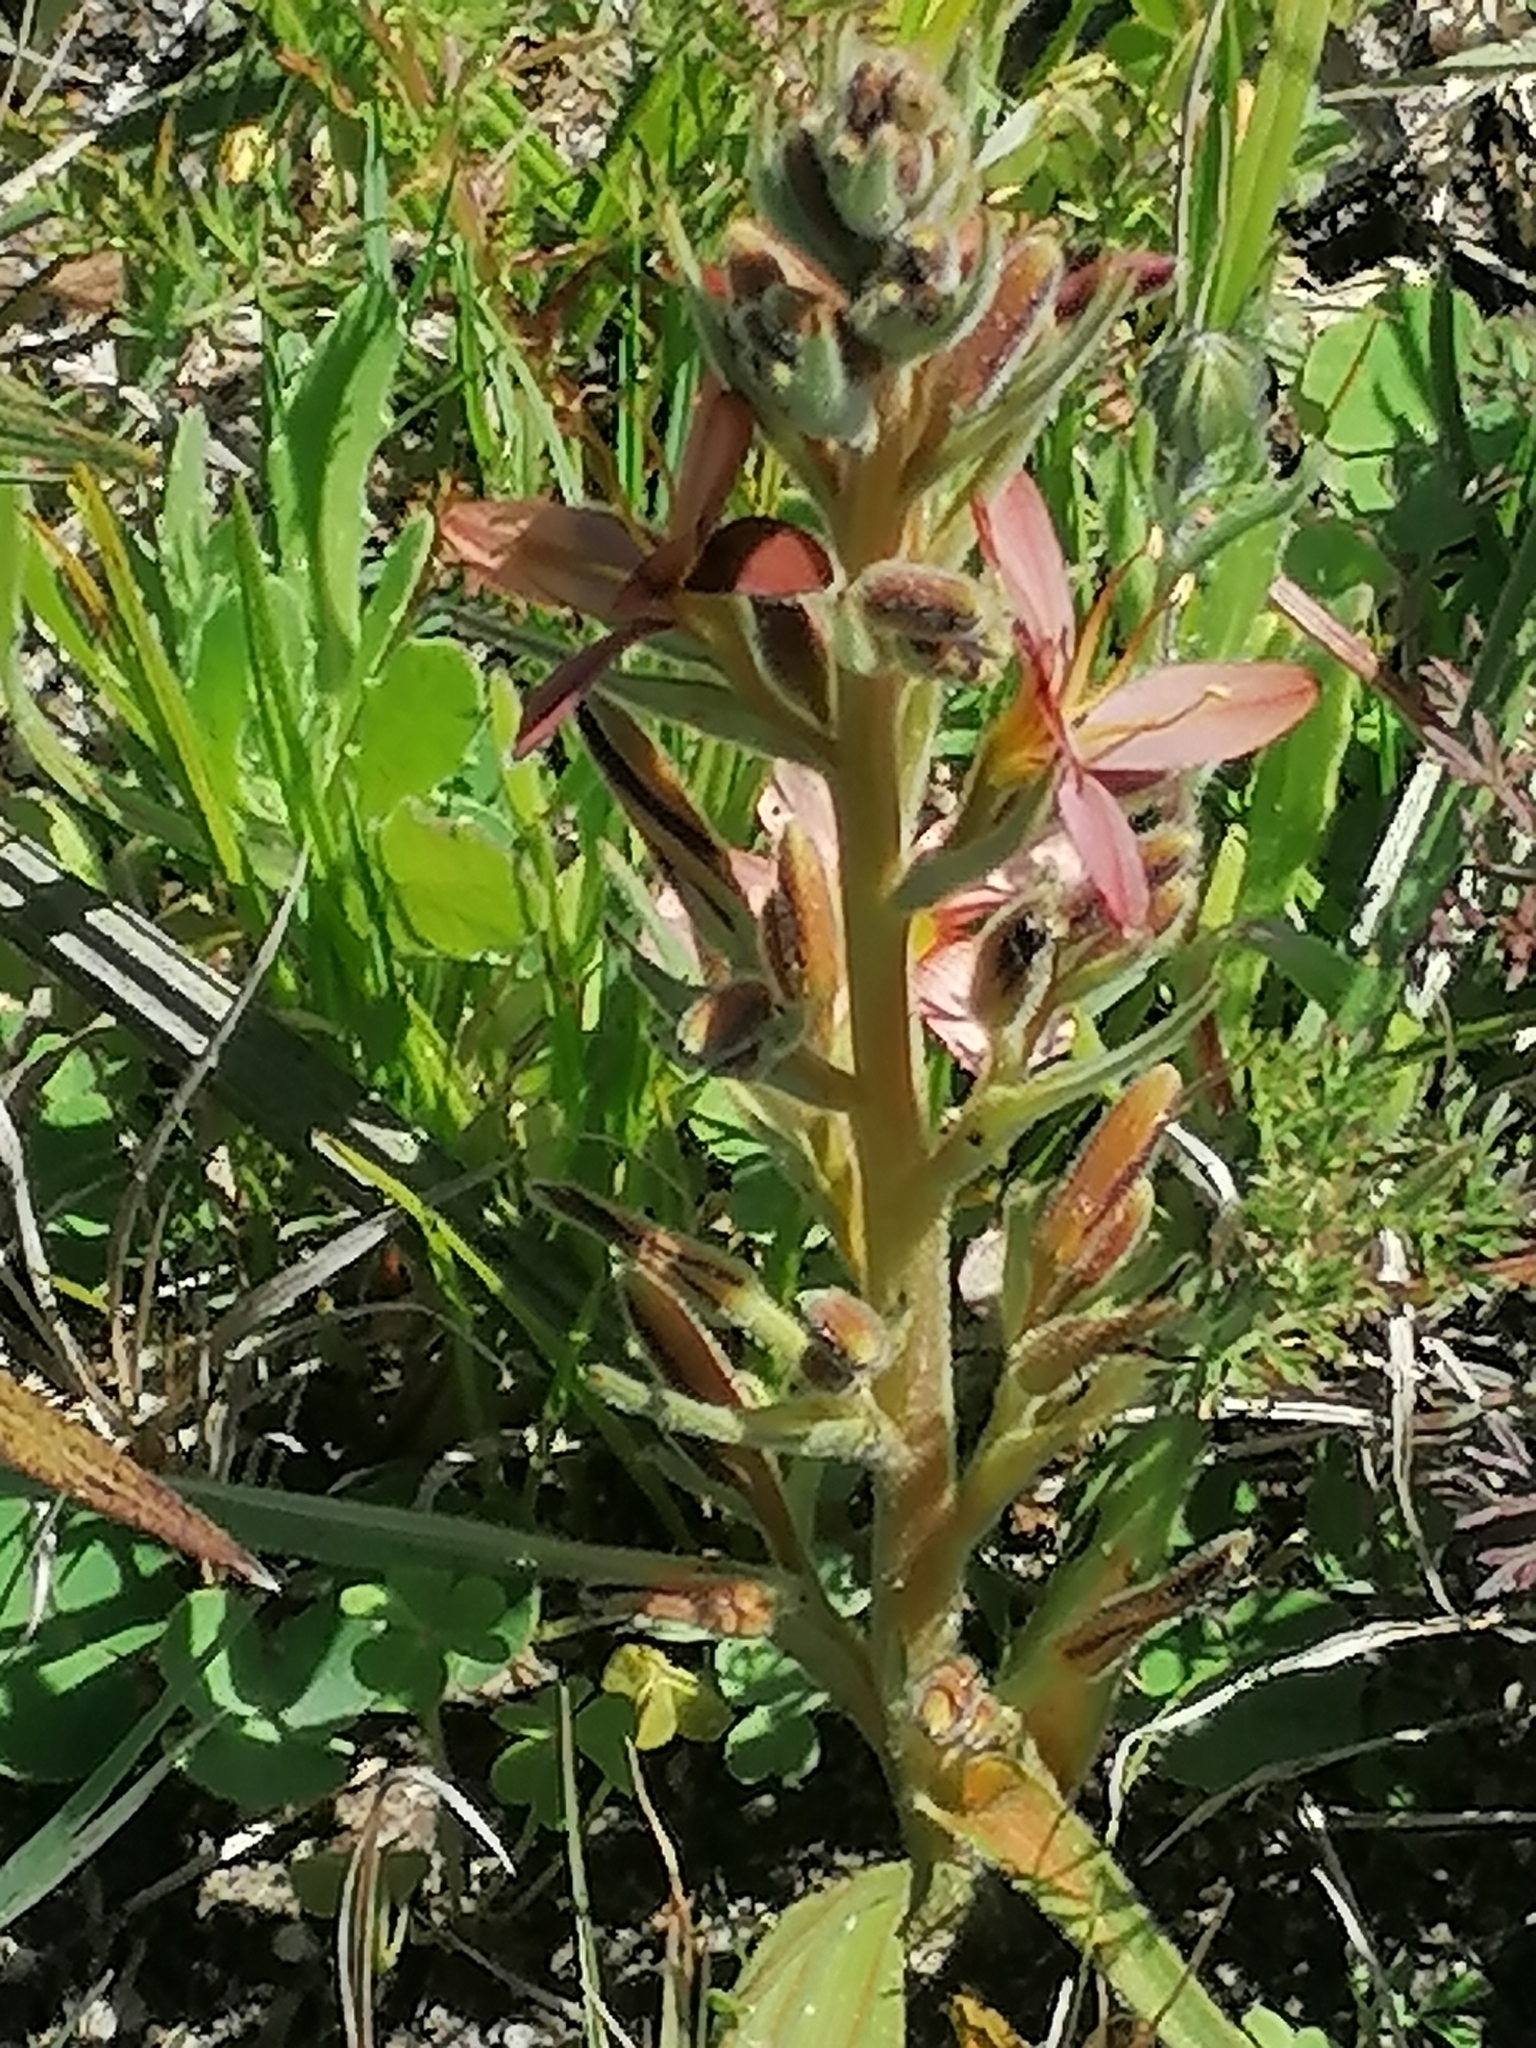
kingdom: Plantae
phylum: Tracheophyta
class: Liliopsida
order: Commelinales
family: Haemodoraceae
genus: Wachendorfia
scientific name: Wachendorfia multiflora
